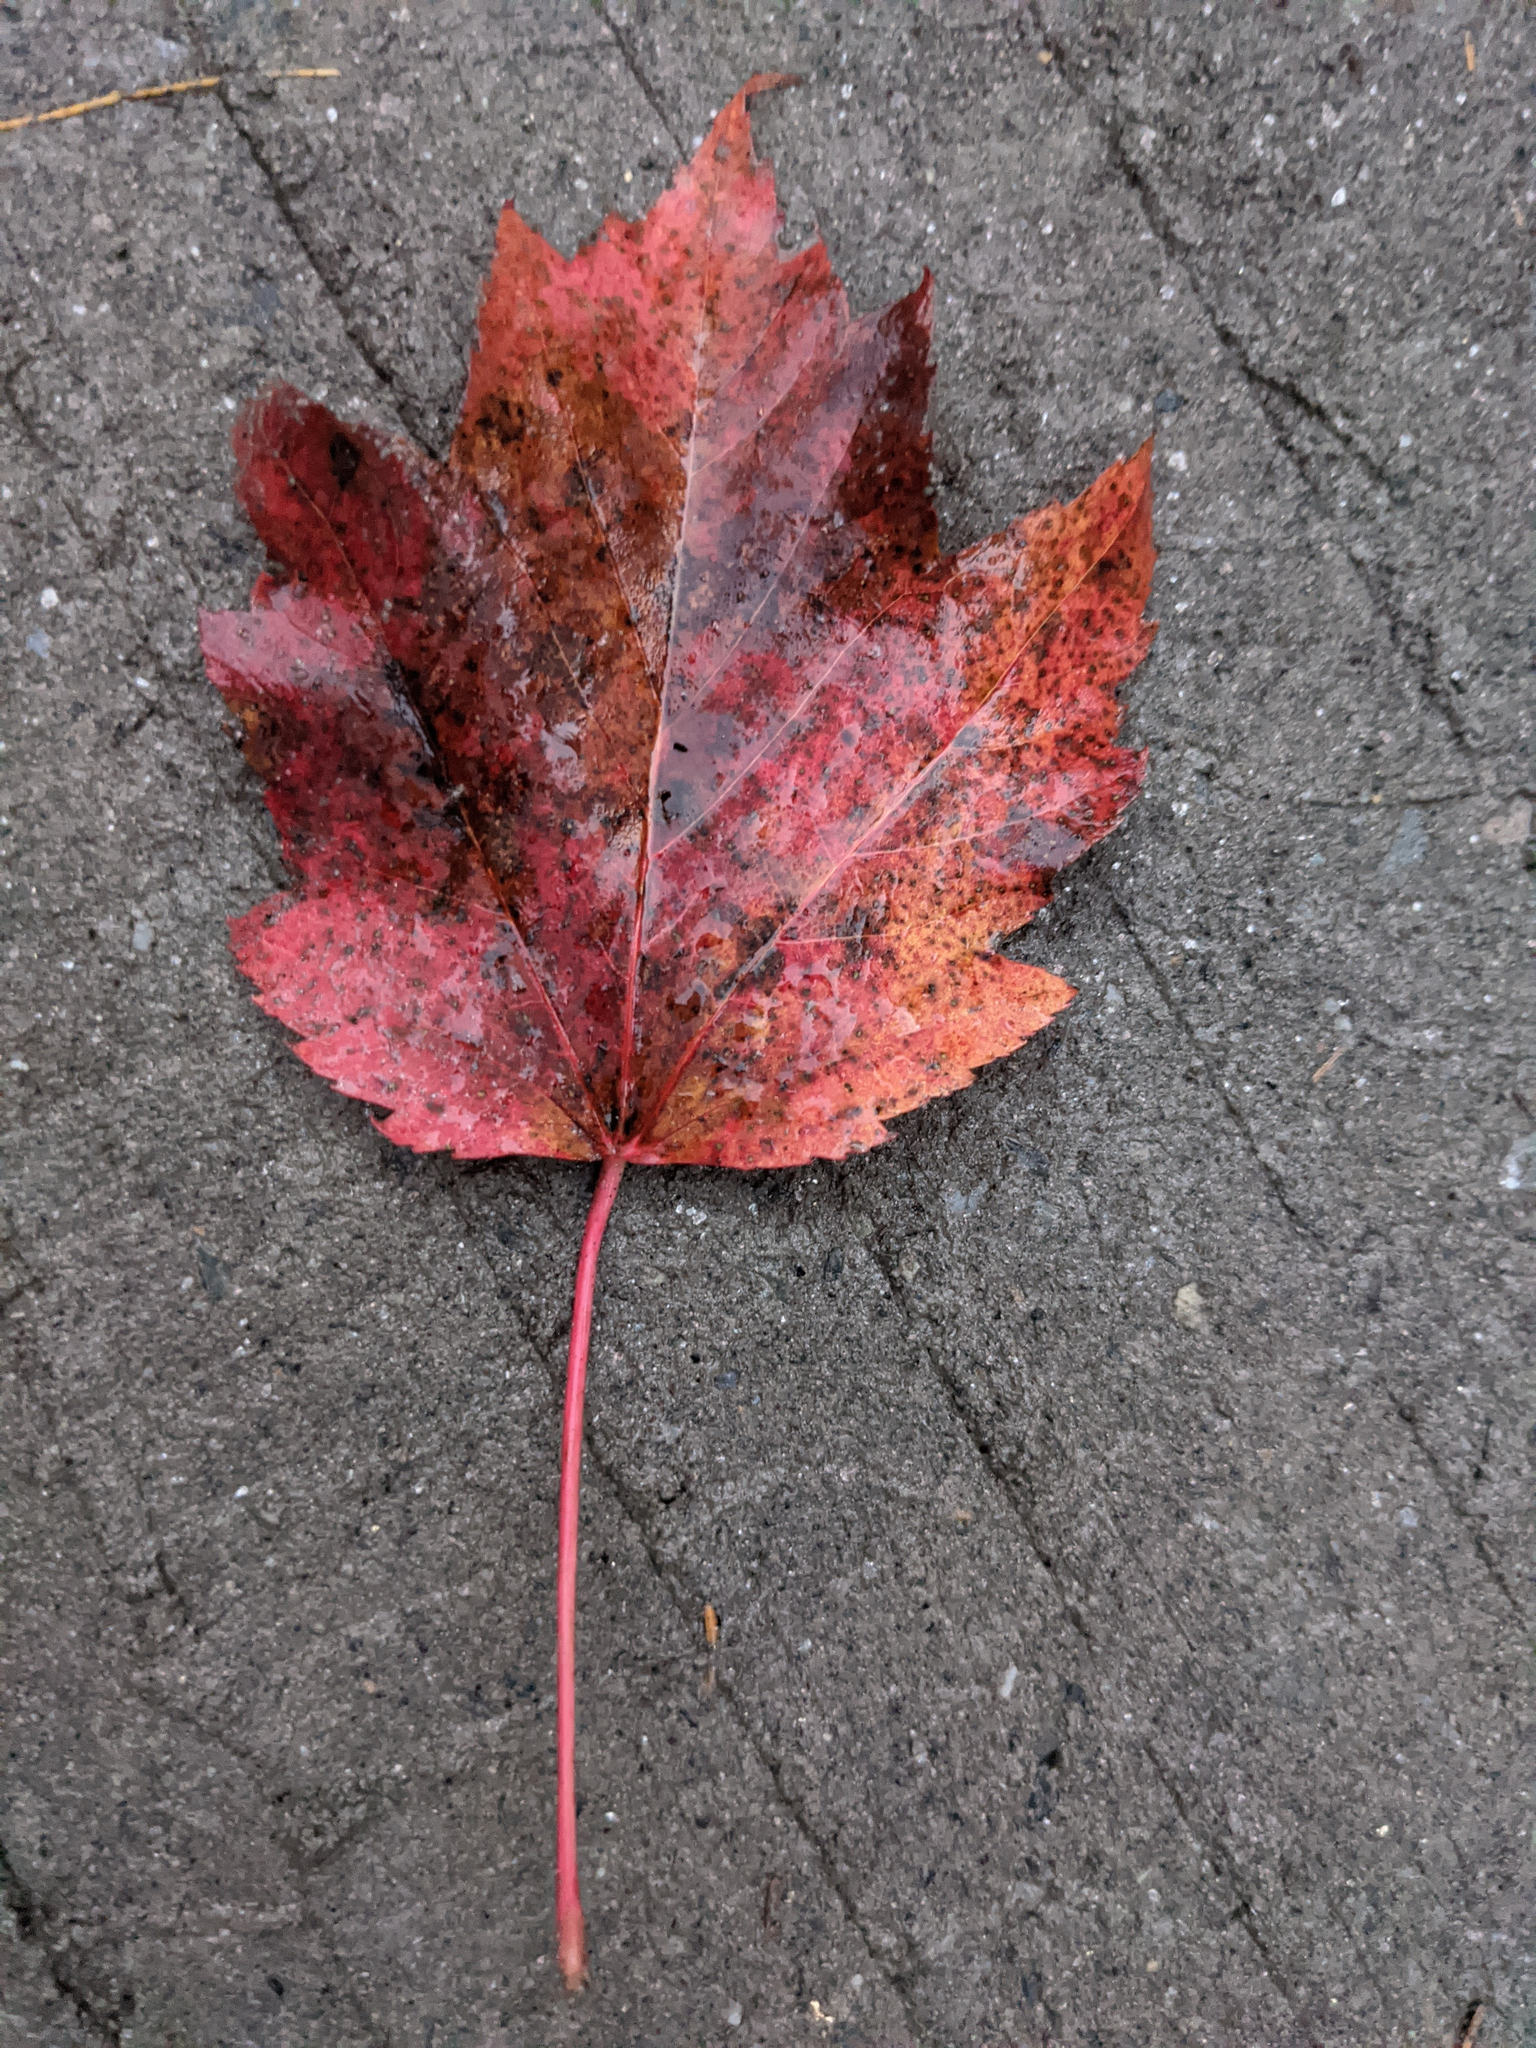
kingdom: Plantae
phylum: Tracheophyta
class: Magnoliopsida
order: Sapindales
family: Sapindaceae
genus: Acer
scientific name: Acer rubrum
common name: Red maple
